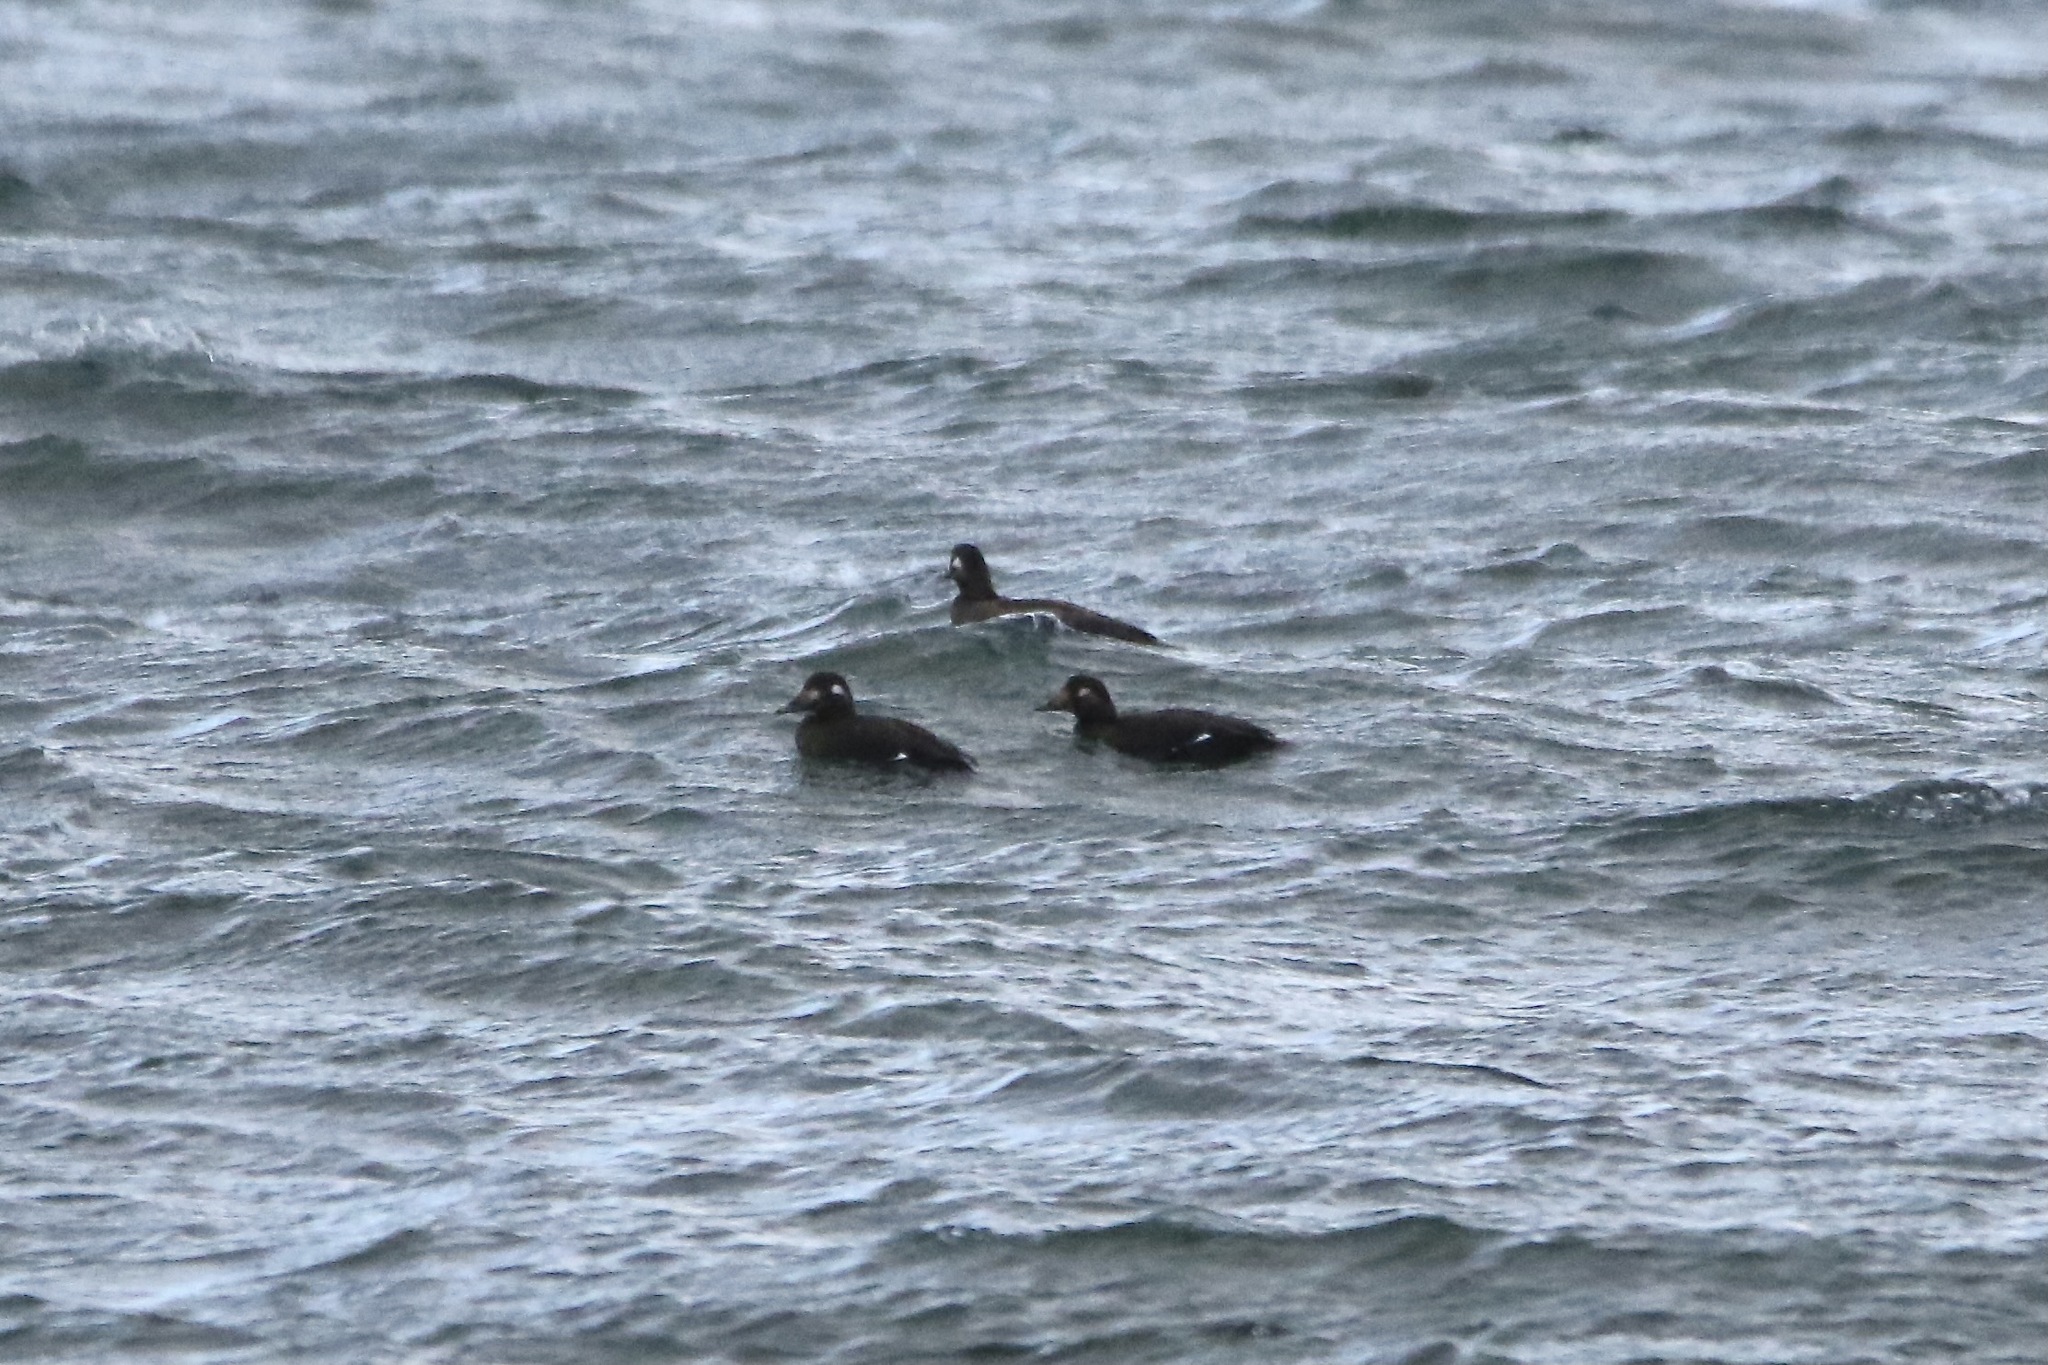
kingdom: Animalia
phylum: Chordata
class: Aves
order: Anseriformes
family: Anatidae
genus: Melanitta
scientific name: Melanitta deglandi
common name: White-winged scoter
